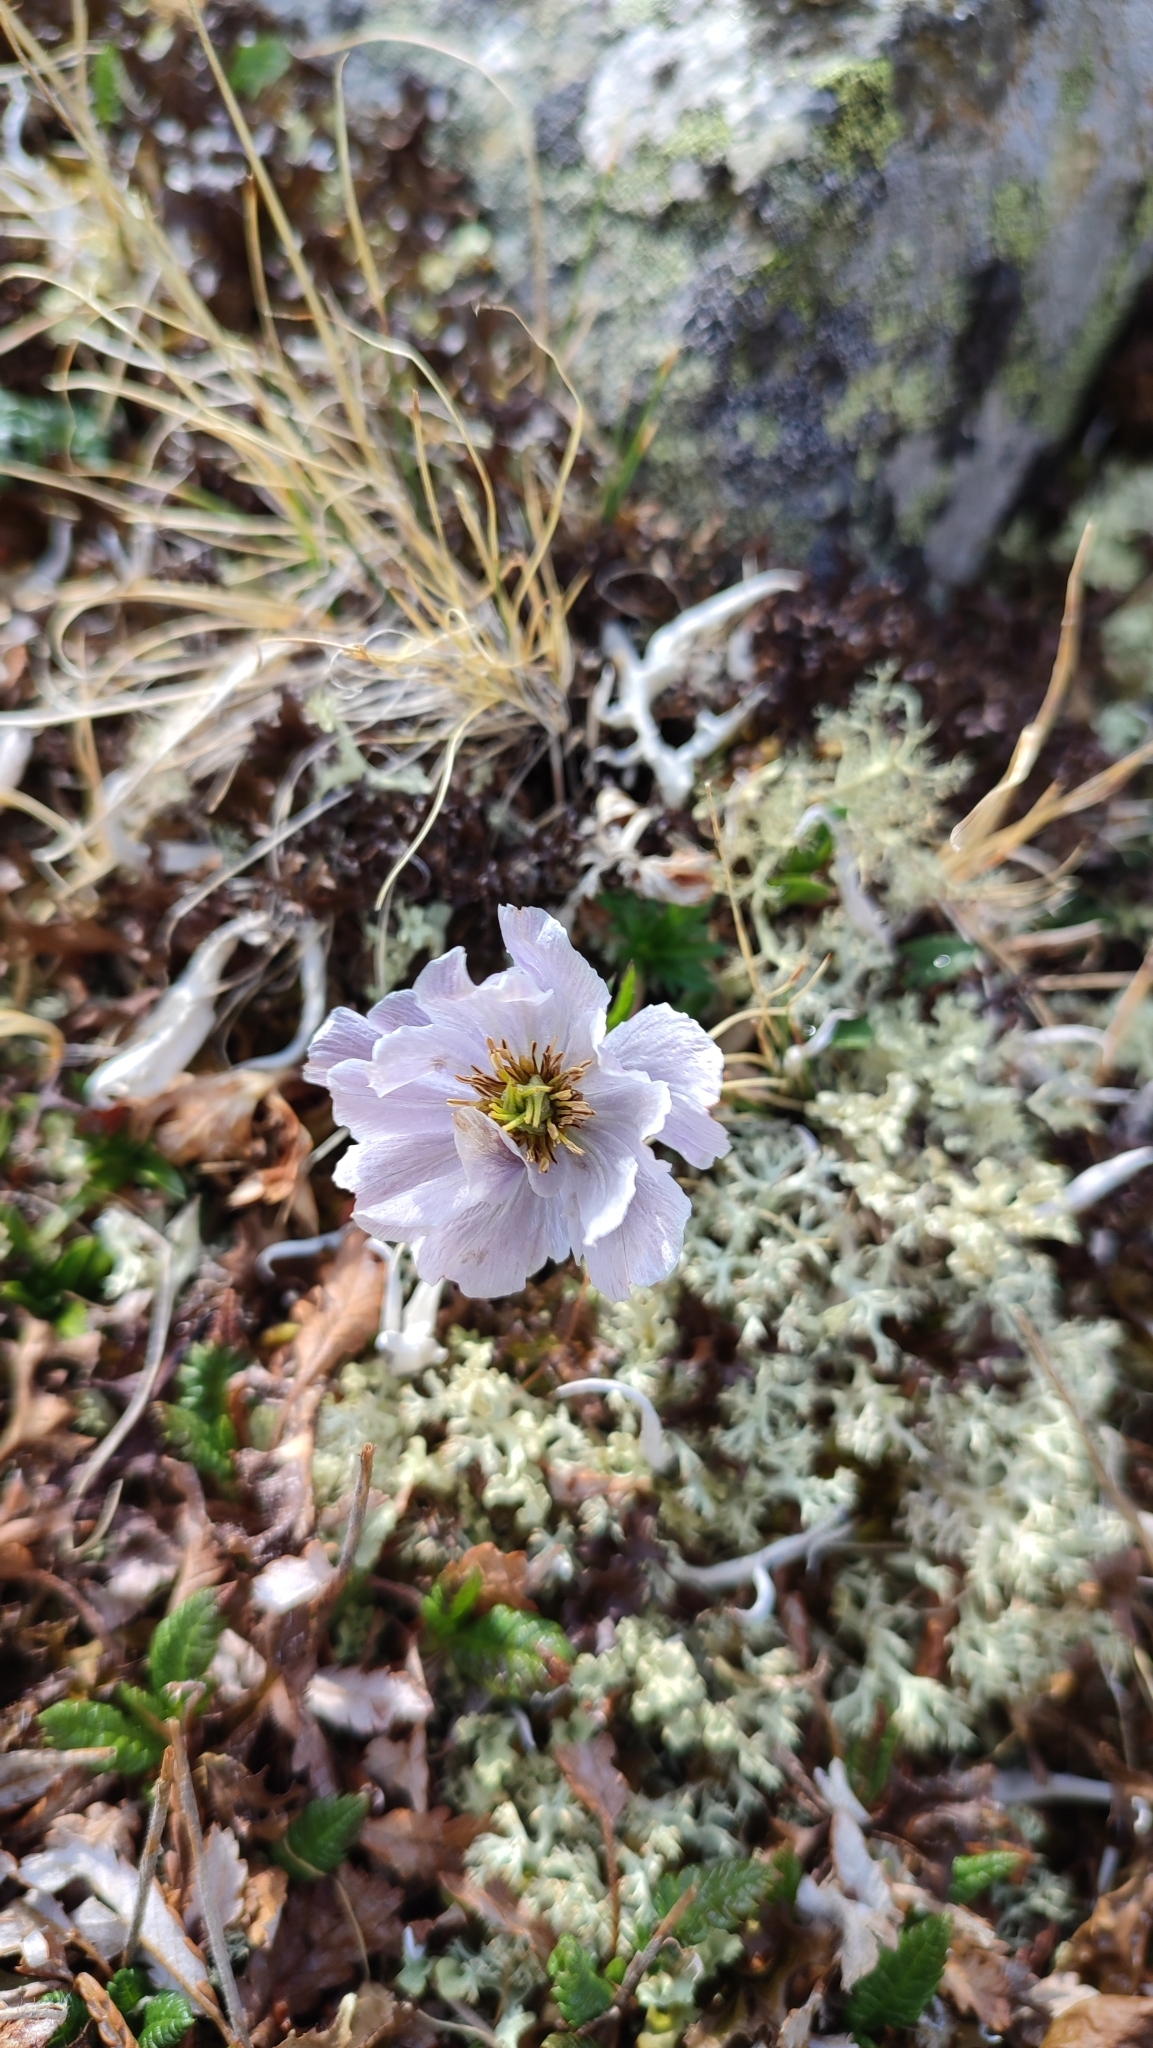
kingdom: Plantae
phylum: Tracheophyta
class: Magnoliopsida
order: Ranunculales
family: Ranunculaceae
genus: Trollius
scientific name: Trollius lilacinus
